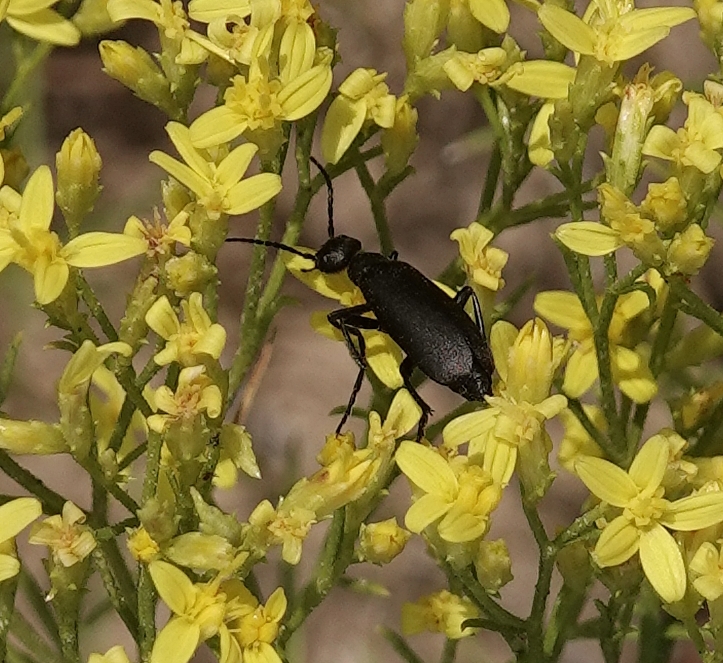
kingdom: Animalia
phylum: Arthropoda
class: Insecta
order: Coleoptera
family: Meloidae
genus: Epicauta
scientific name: Epicauta pensylvanica
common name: Black blister beetle
